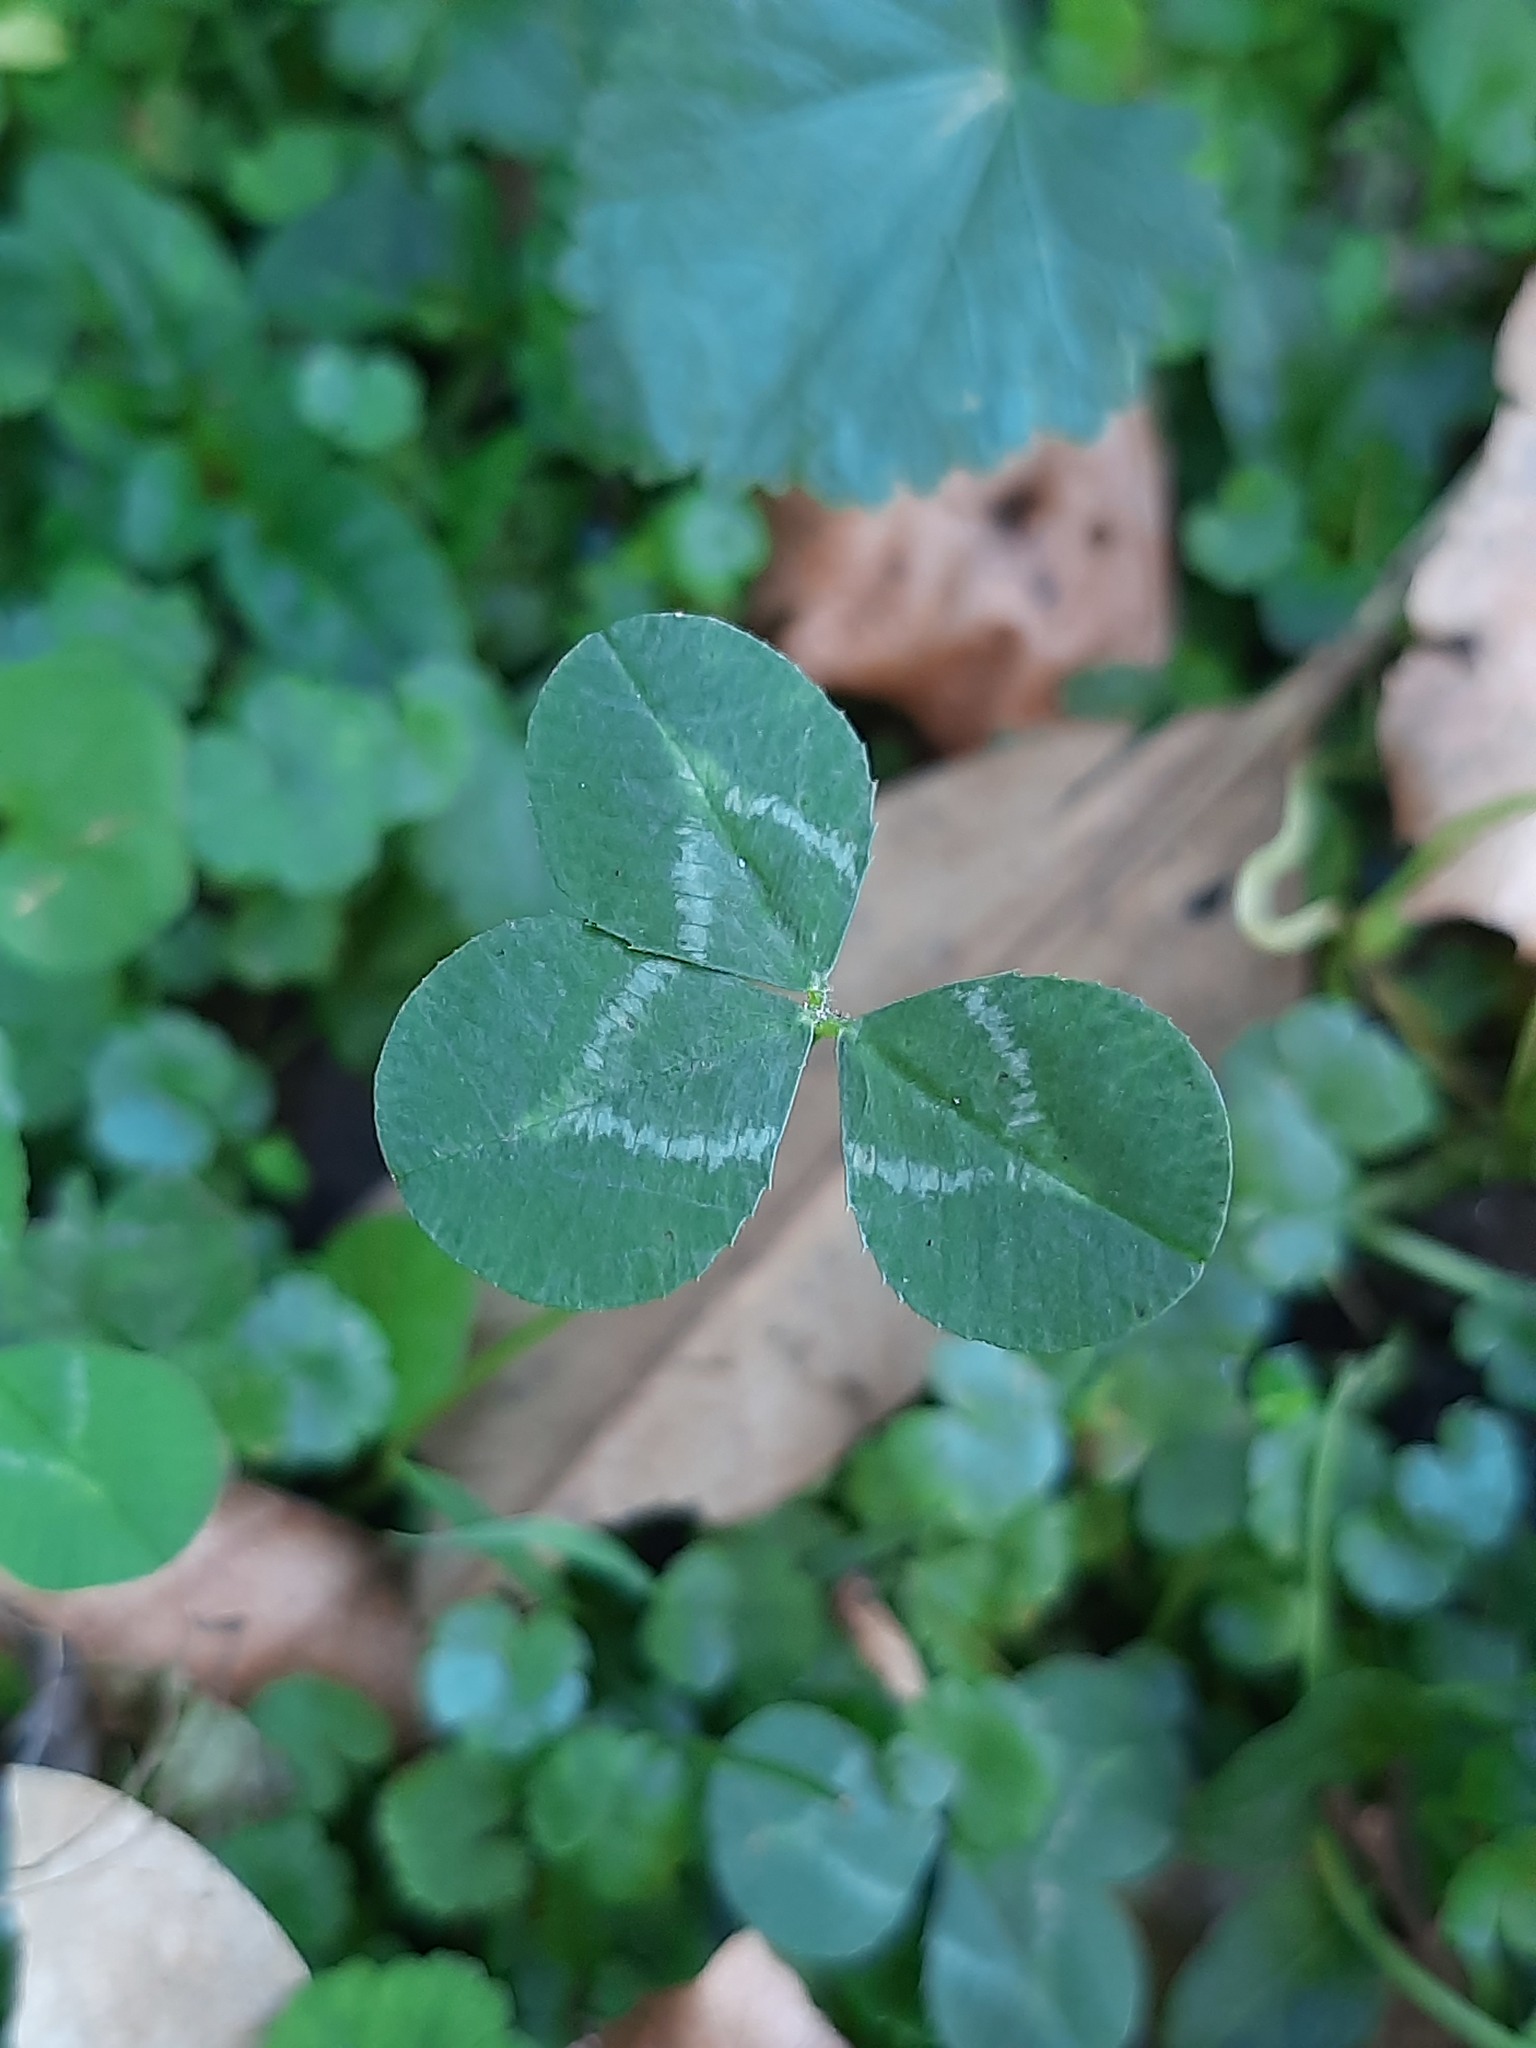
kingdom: Plantae
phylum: Tracheophyta
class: Magnoliopsida
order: Fabales
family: Fabaceae
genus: Trifolium
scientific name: Trifolium repens
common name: White clover
